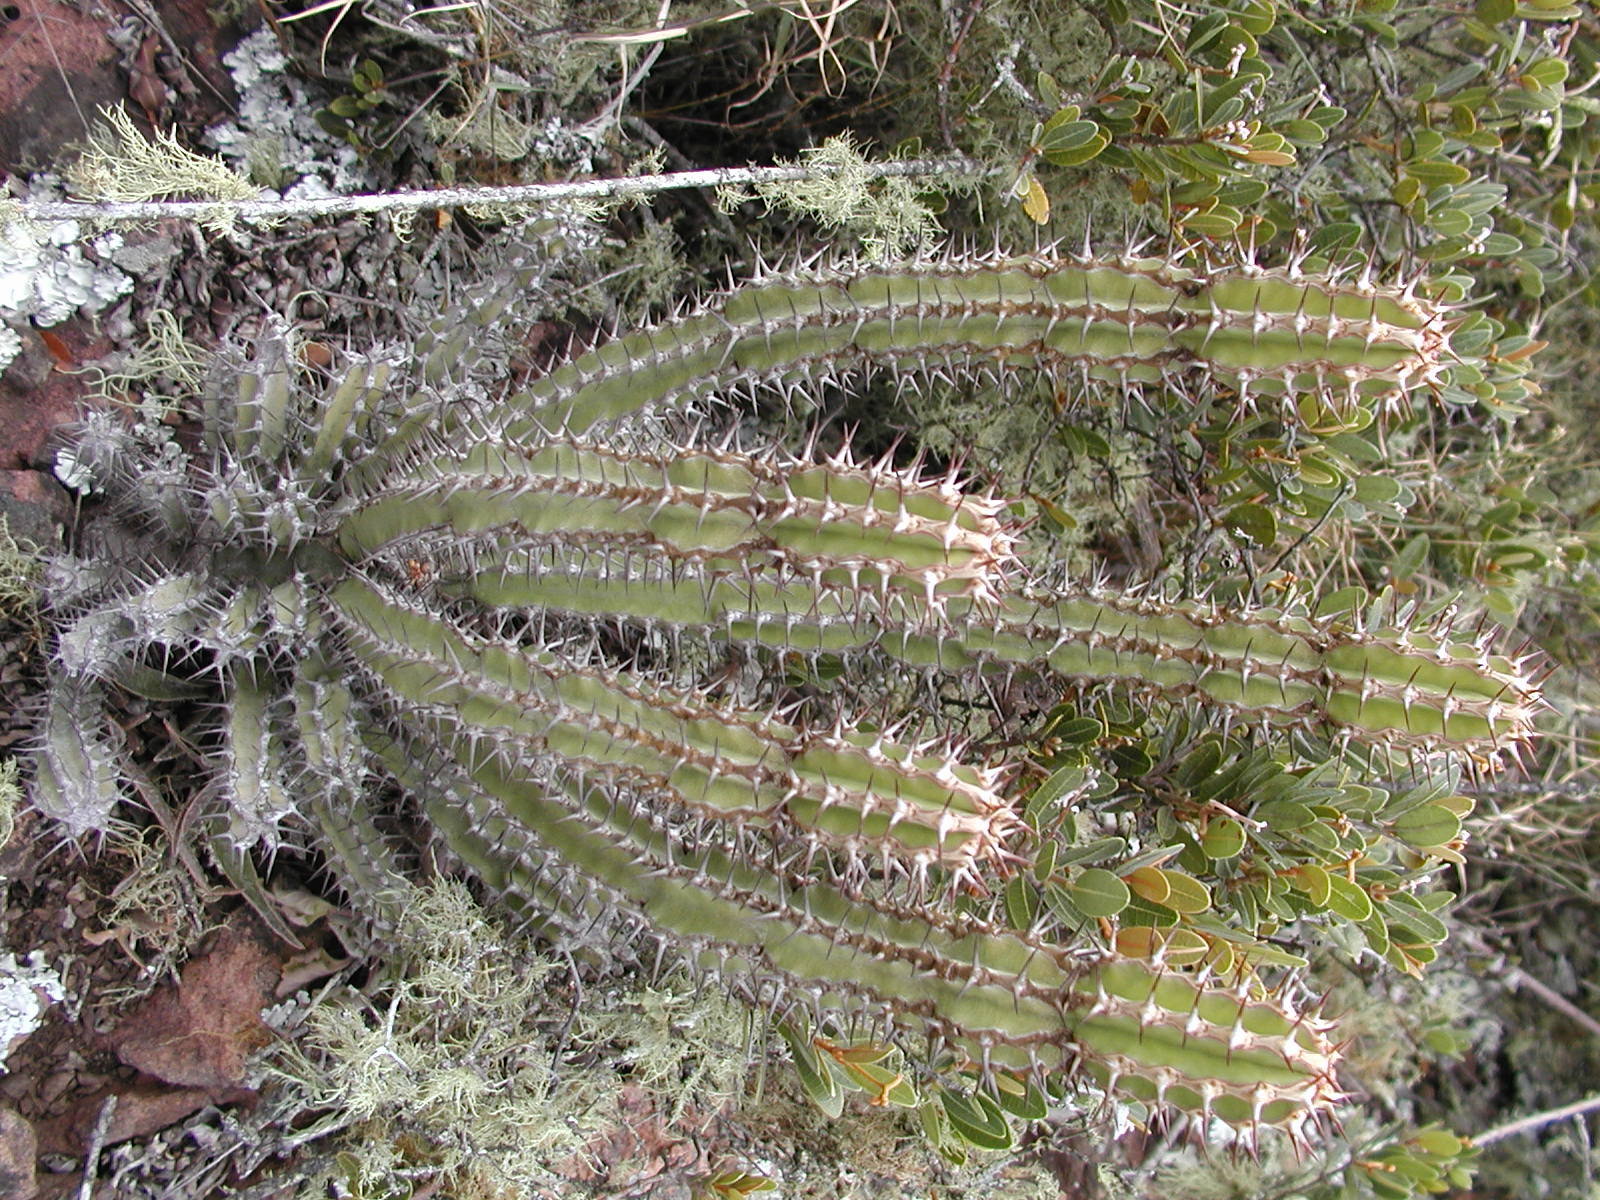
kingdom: Plantae
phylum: Tracheophyta
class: Magnoliopsida
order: Malpighiales
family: Euphorbiaceae
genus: Euphorbia
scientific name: Euphorbia zoutpansbergensis
